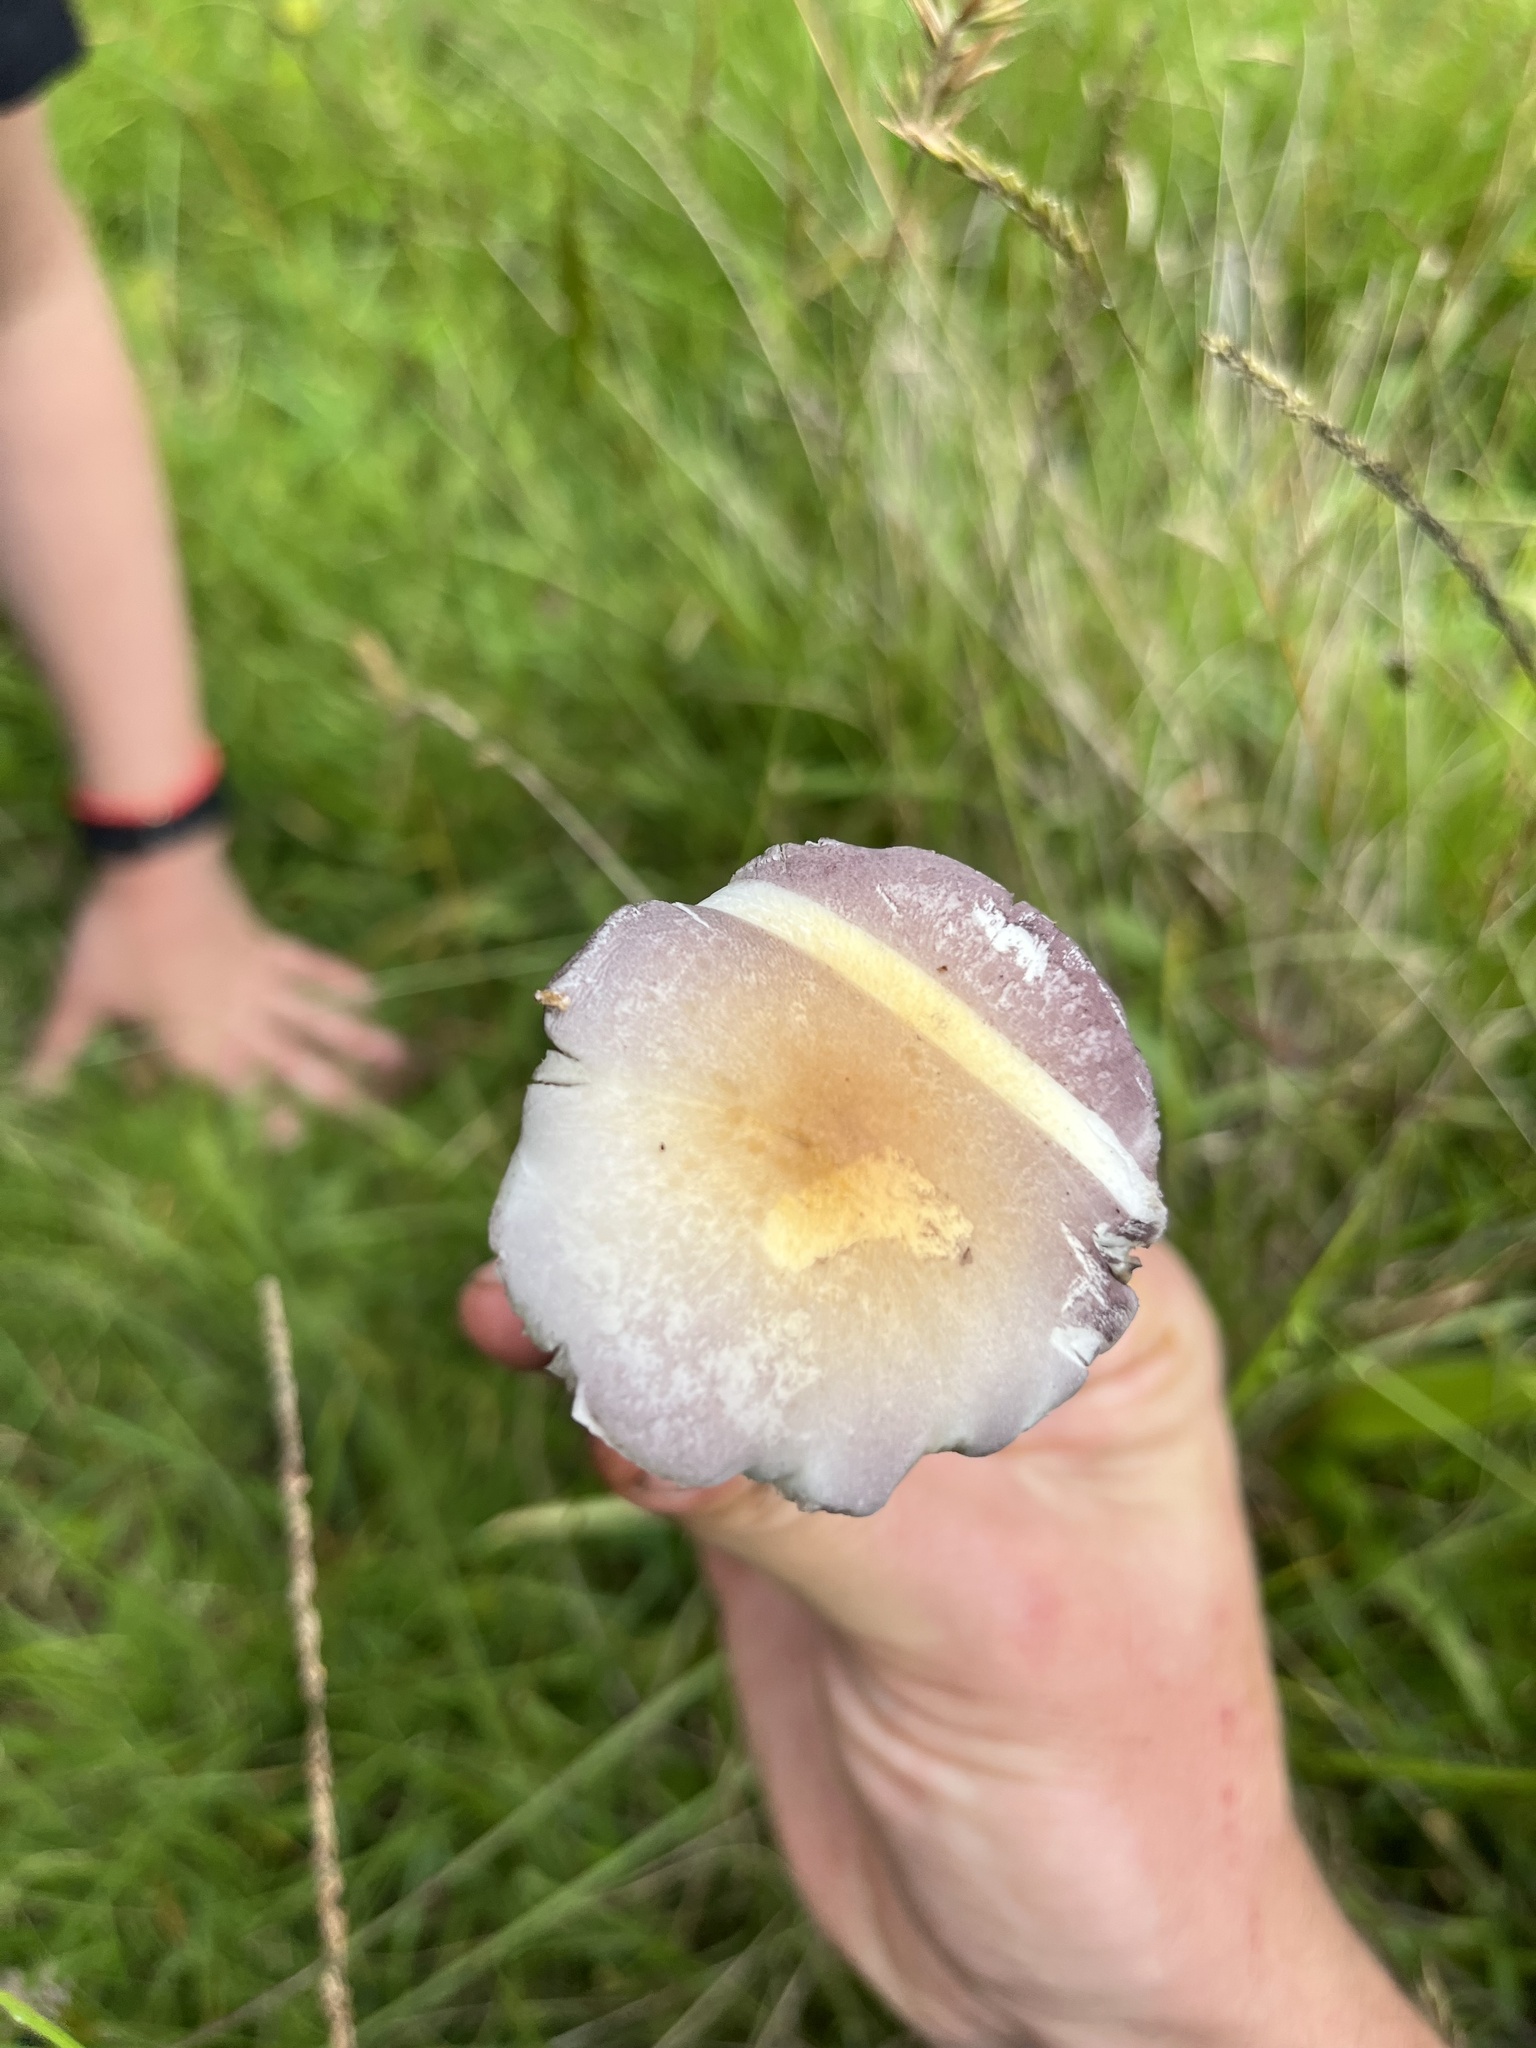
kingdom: Fungi
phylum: Basidiomycota
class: Agaricomycetes
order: Agaricales
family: Hymenogastraceae
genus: Psilocybe
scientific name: Psilocybe cubensis
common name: Golden brownie
